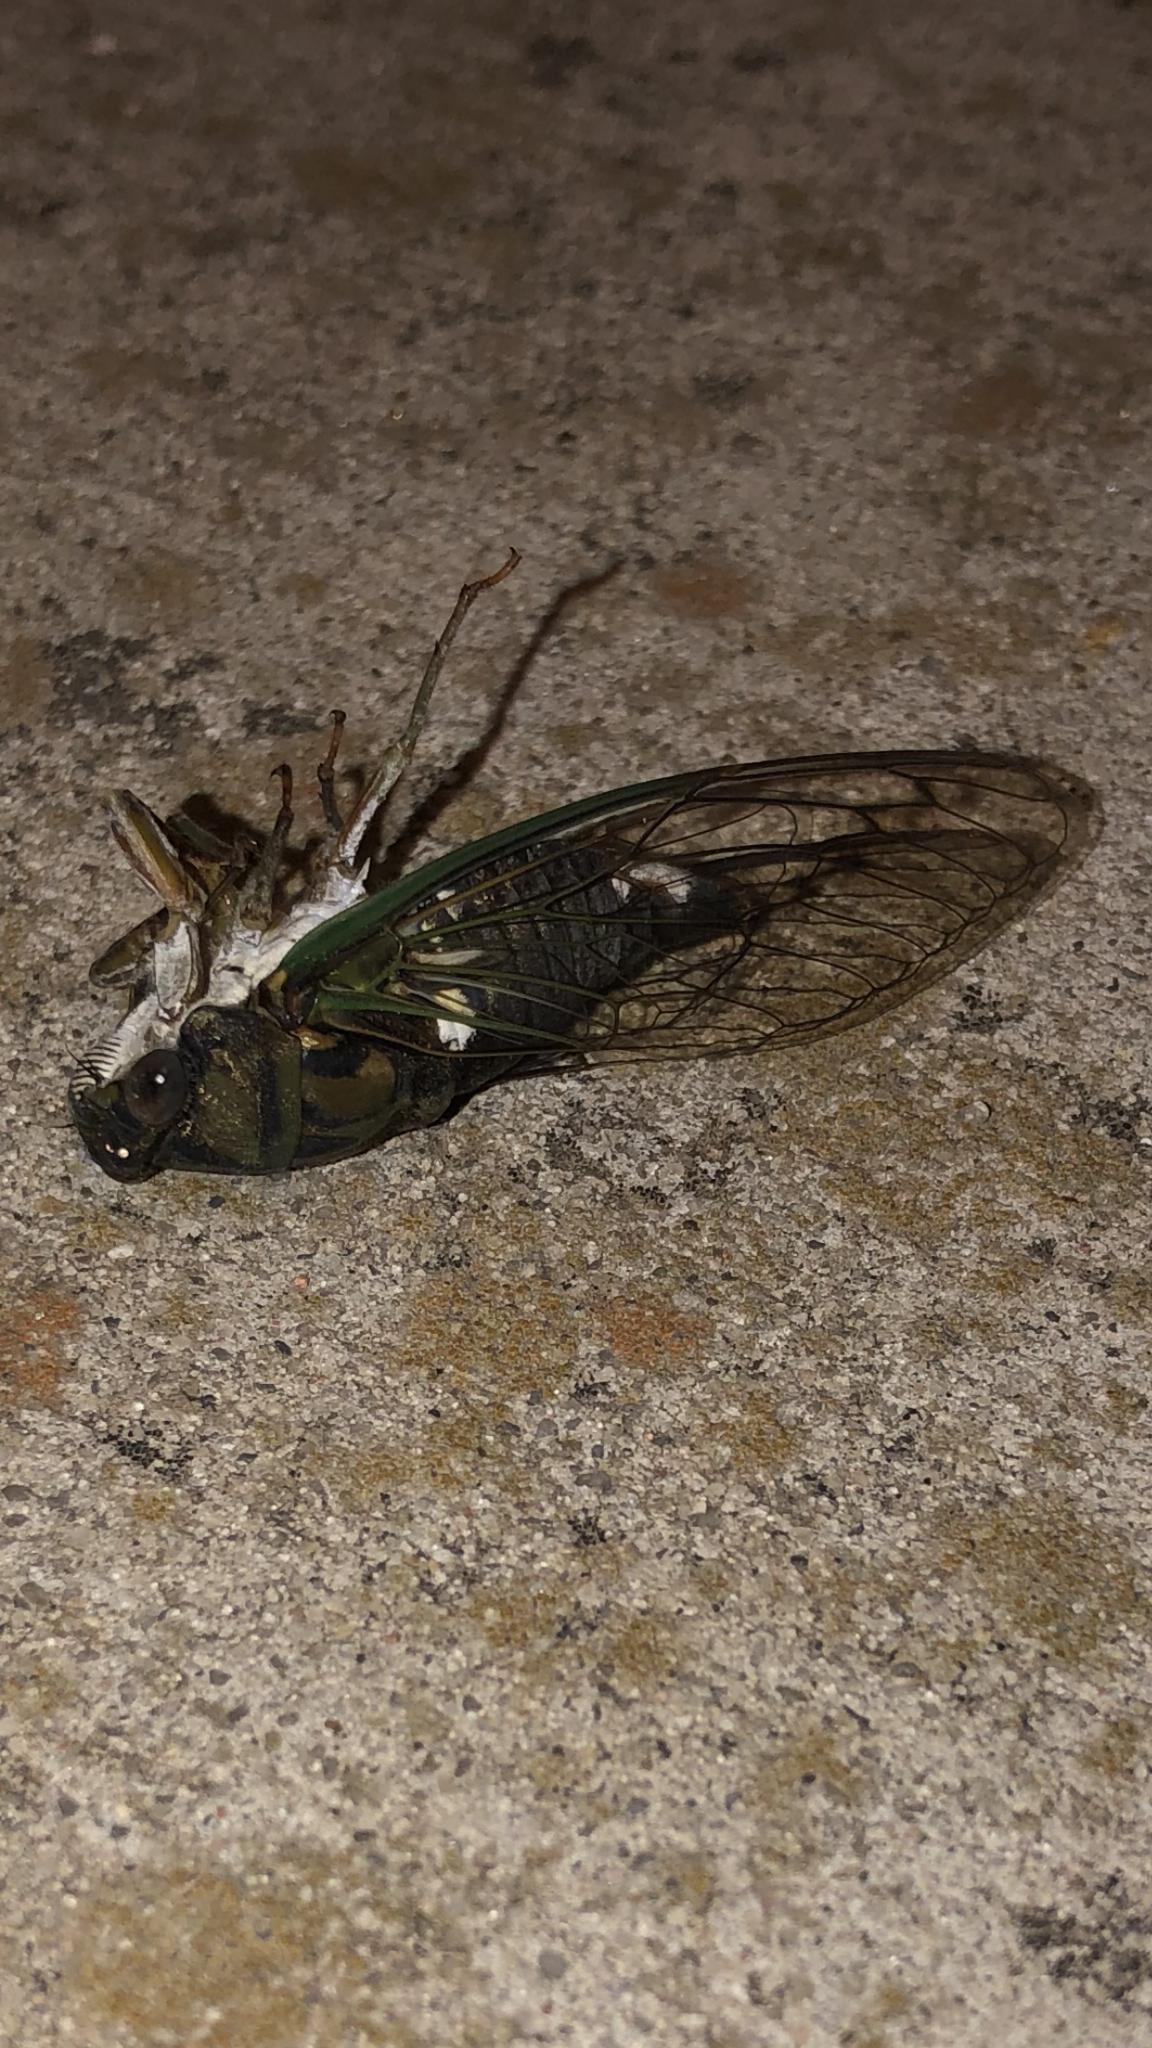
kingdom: Animalia
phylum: Arthropoda
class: Insecta
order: Hemiptera
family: Cicadidae
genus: Neotibicen
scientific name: Neotibicen pruinosus
